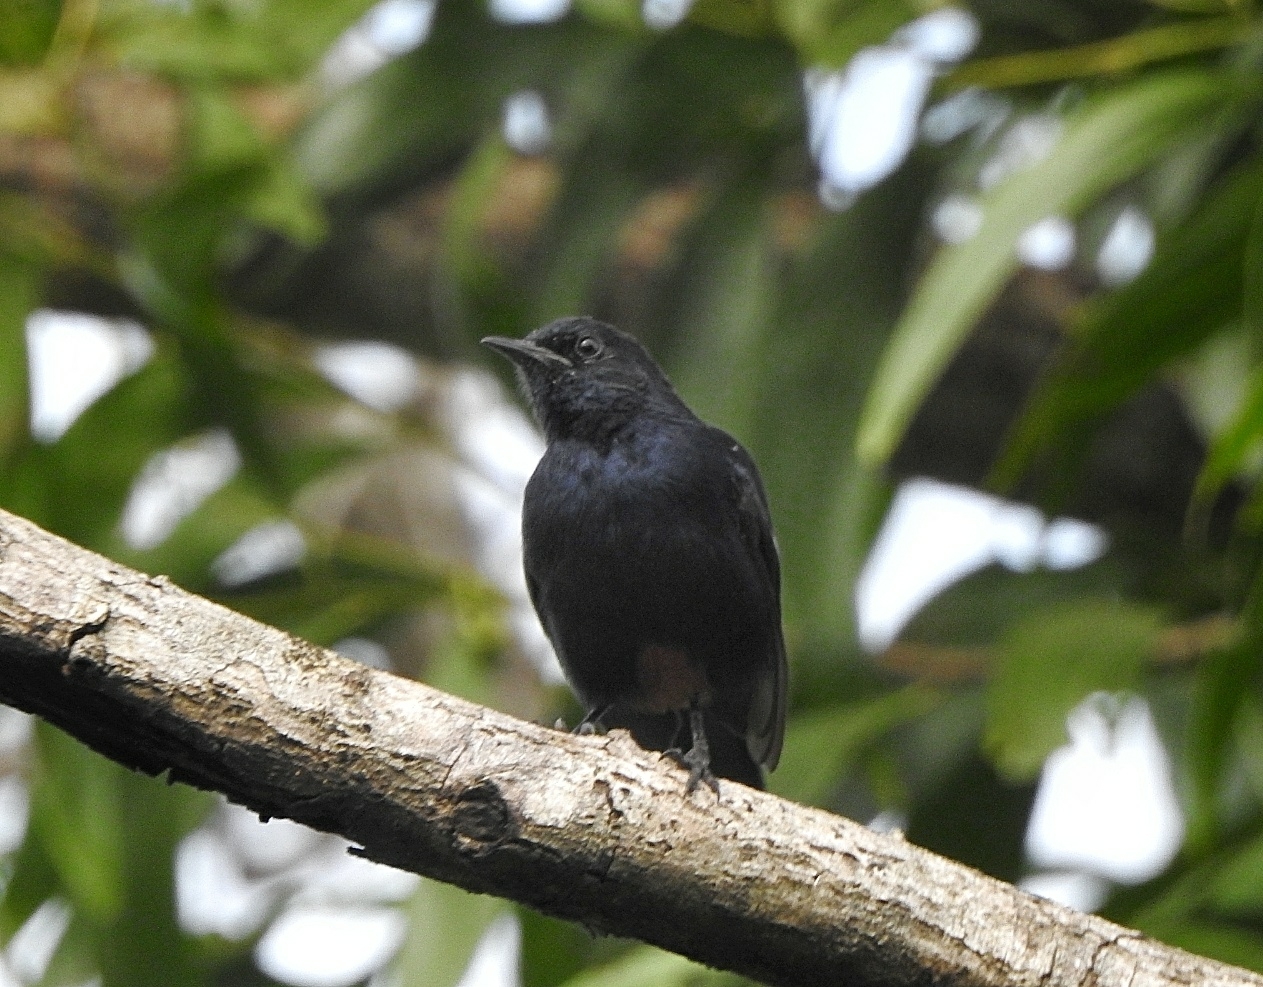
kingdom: Animalia
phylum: Chordata
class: Aves
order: Passeriformes
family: Muscicapidae
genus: Saxicoloides
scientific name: Saxicoloides fulicatus
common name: Indian robin
